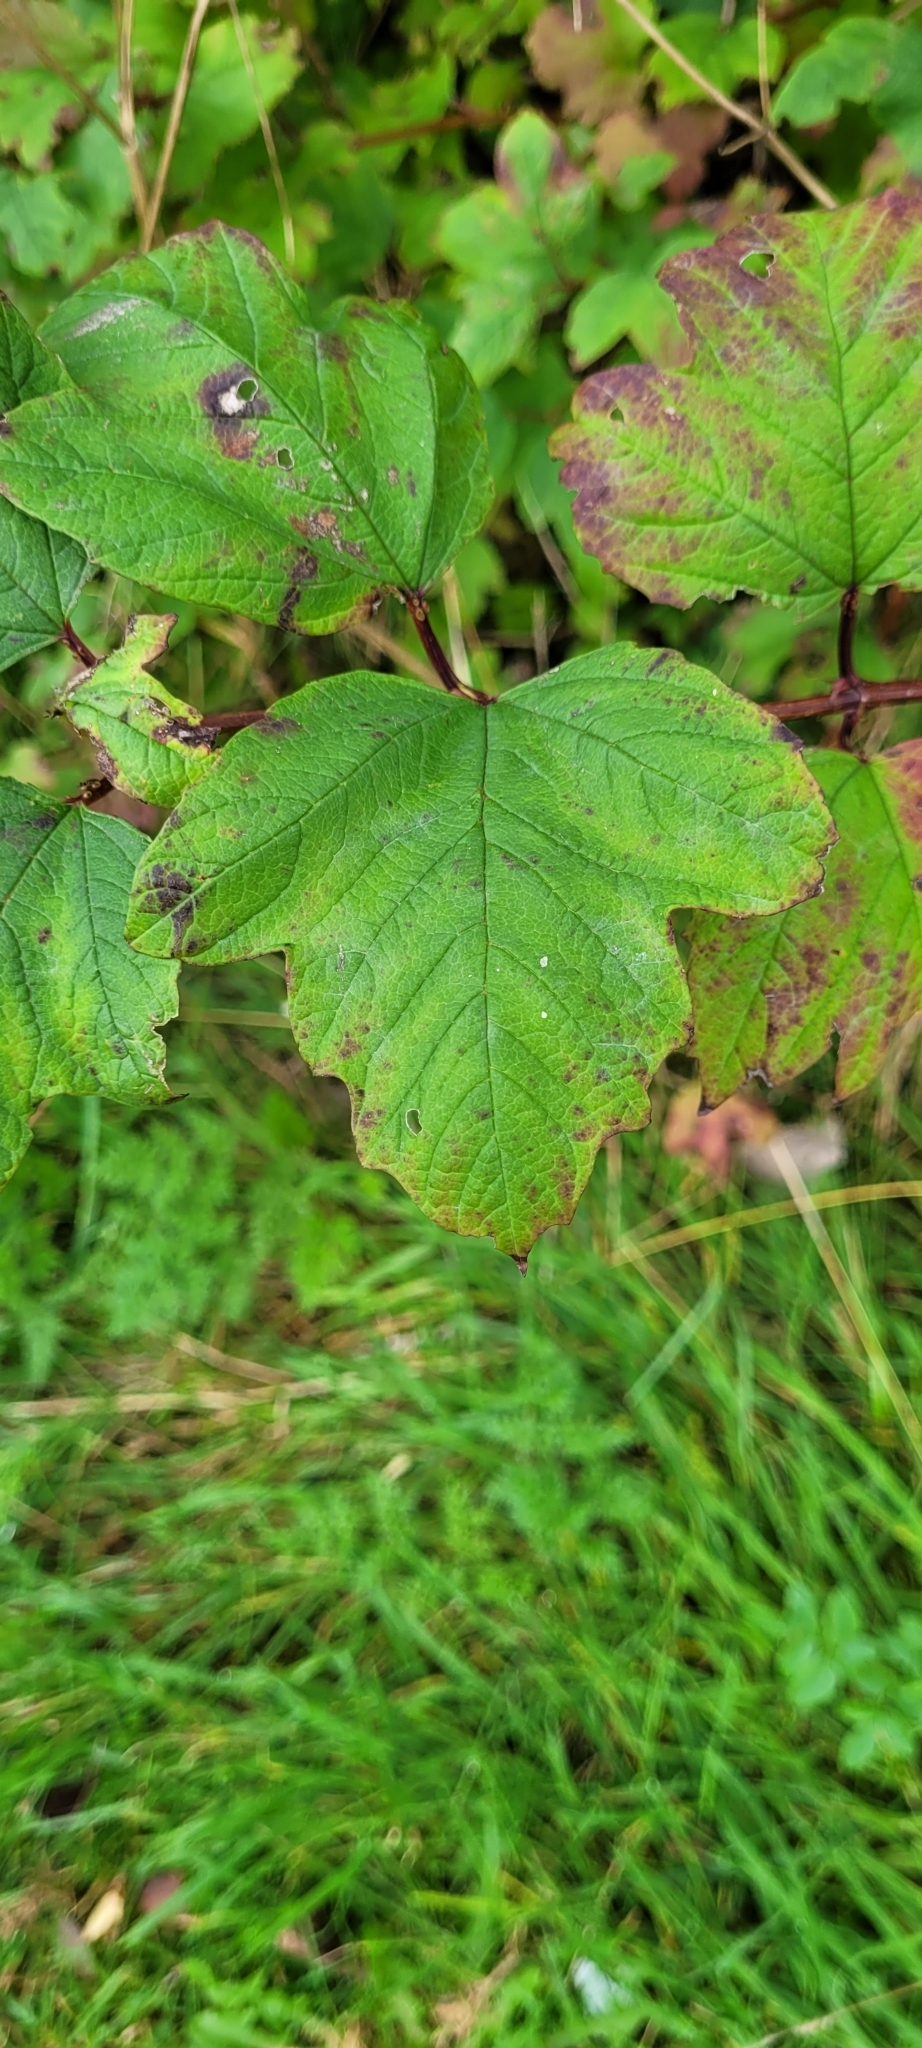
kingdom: Plantae
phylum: Tracheophyta
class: Magnoliopsida
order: Dipsacales
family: Viburnaceae
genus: Viburnum
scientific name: Viburnum opulus
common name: Guelder-rose
